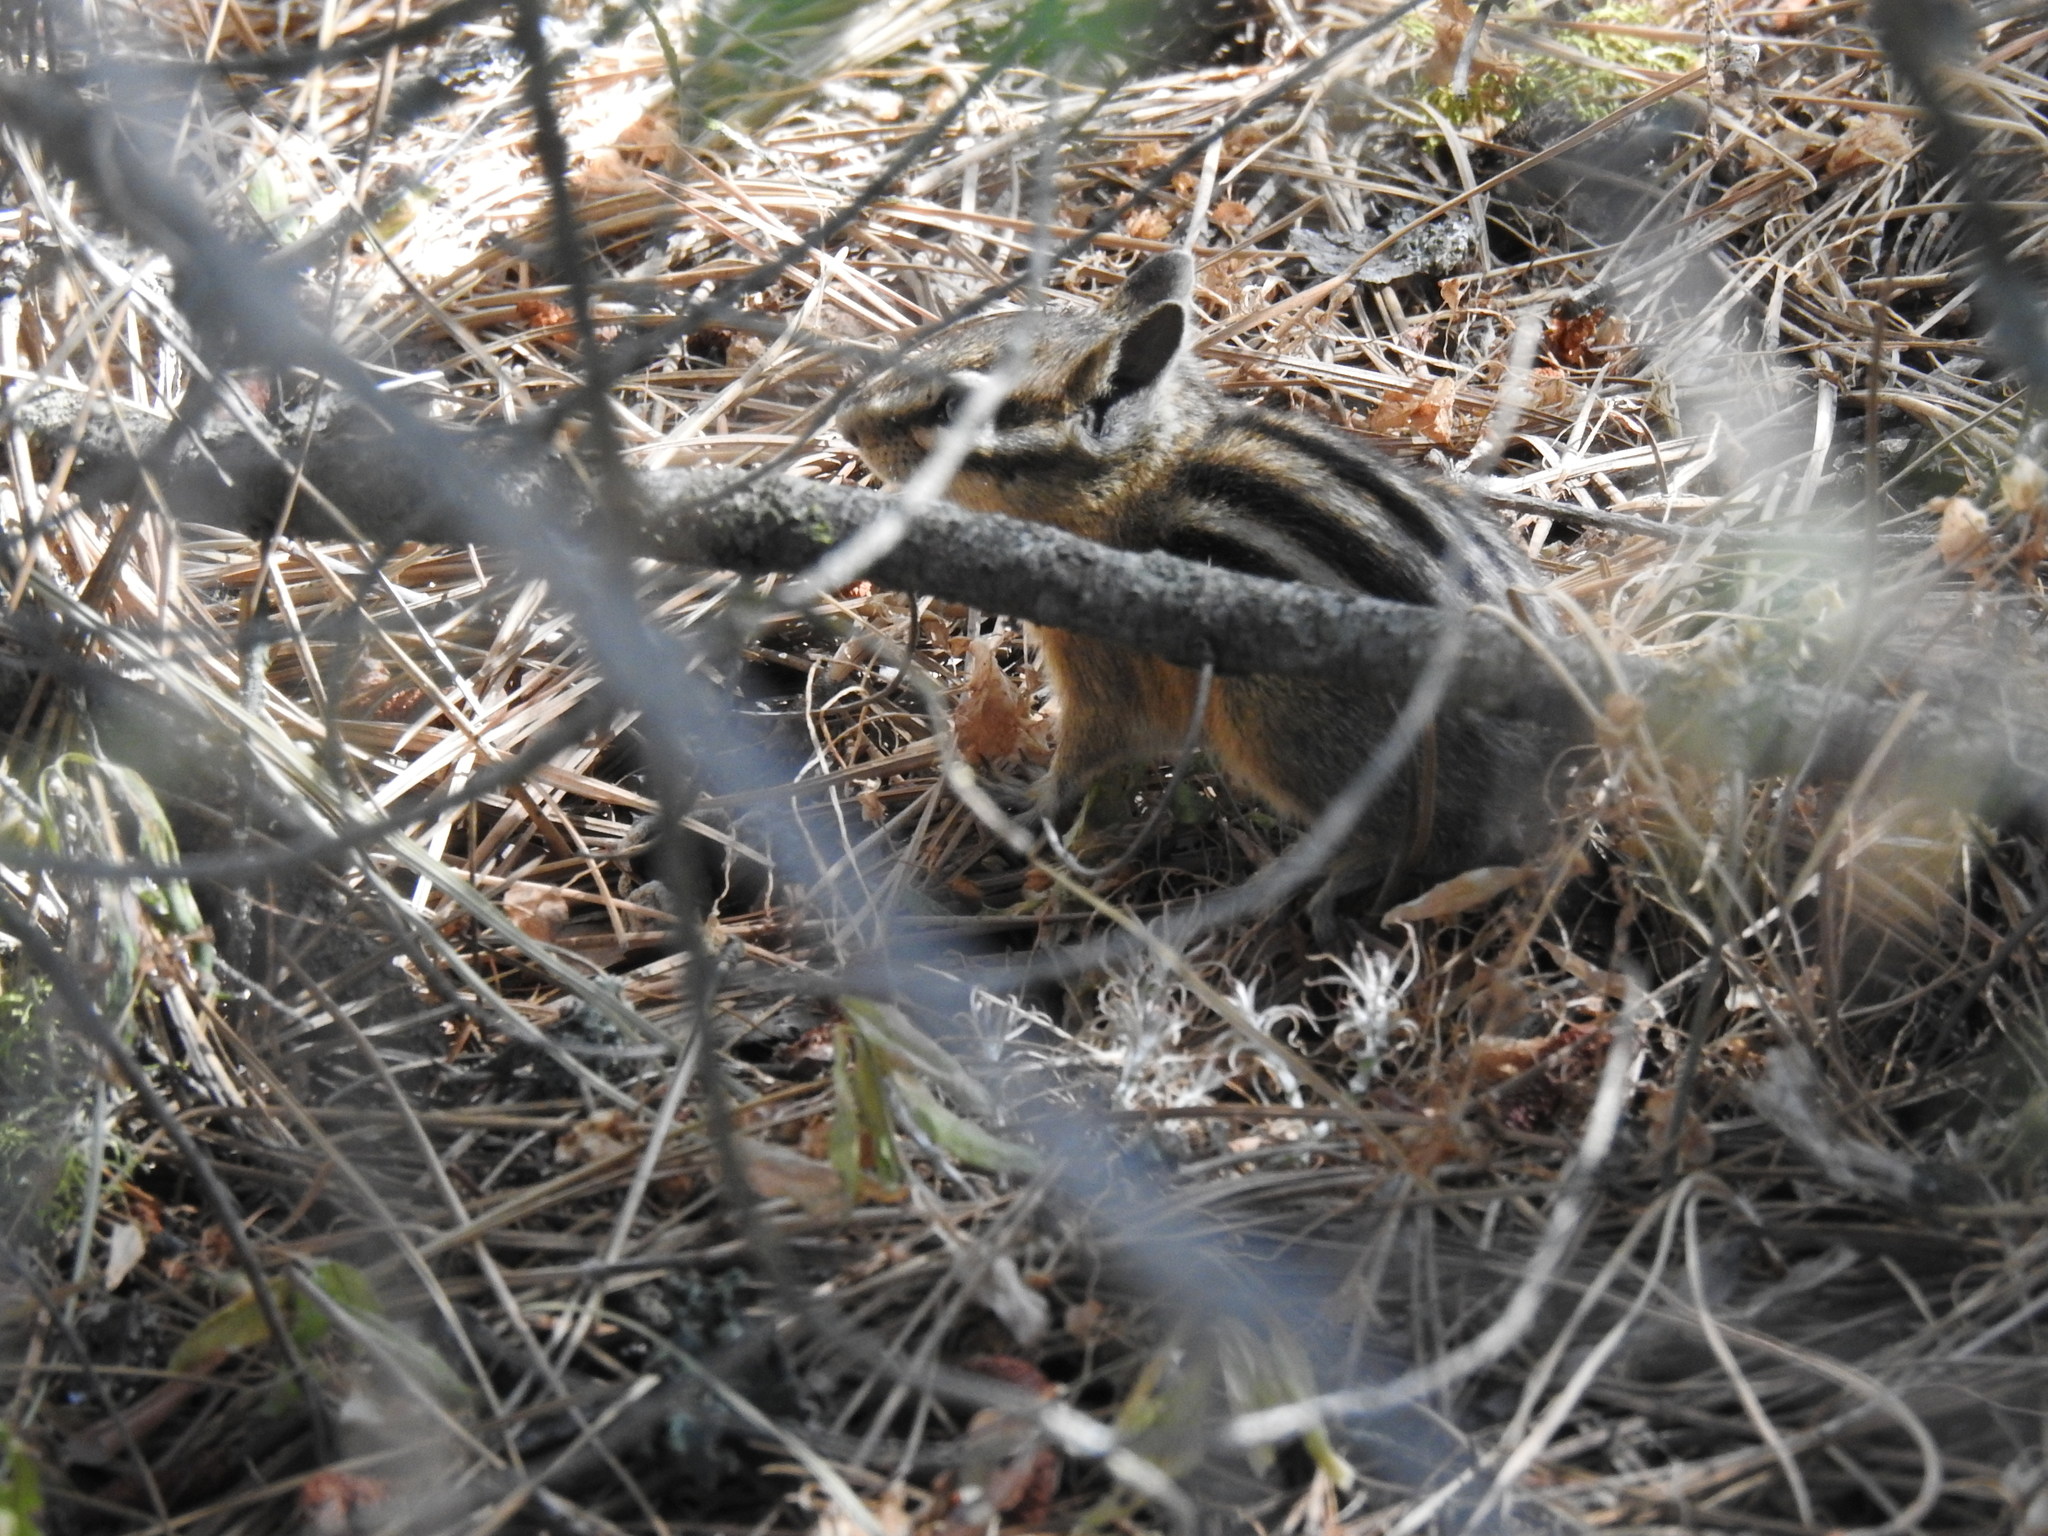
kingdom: Animalia
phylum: Chordata
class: Mammalia
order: Rodentia
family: Sciuridae
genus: Tamias
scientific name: Tamias amoenus
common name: Yellow-pine chipmunk
